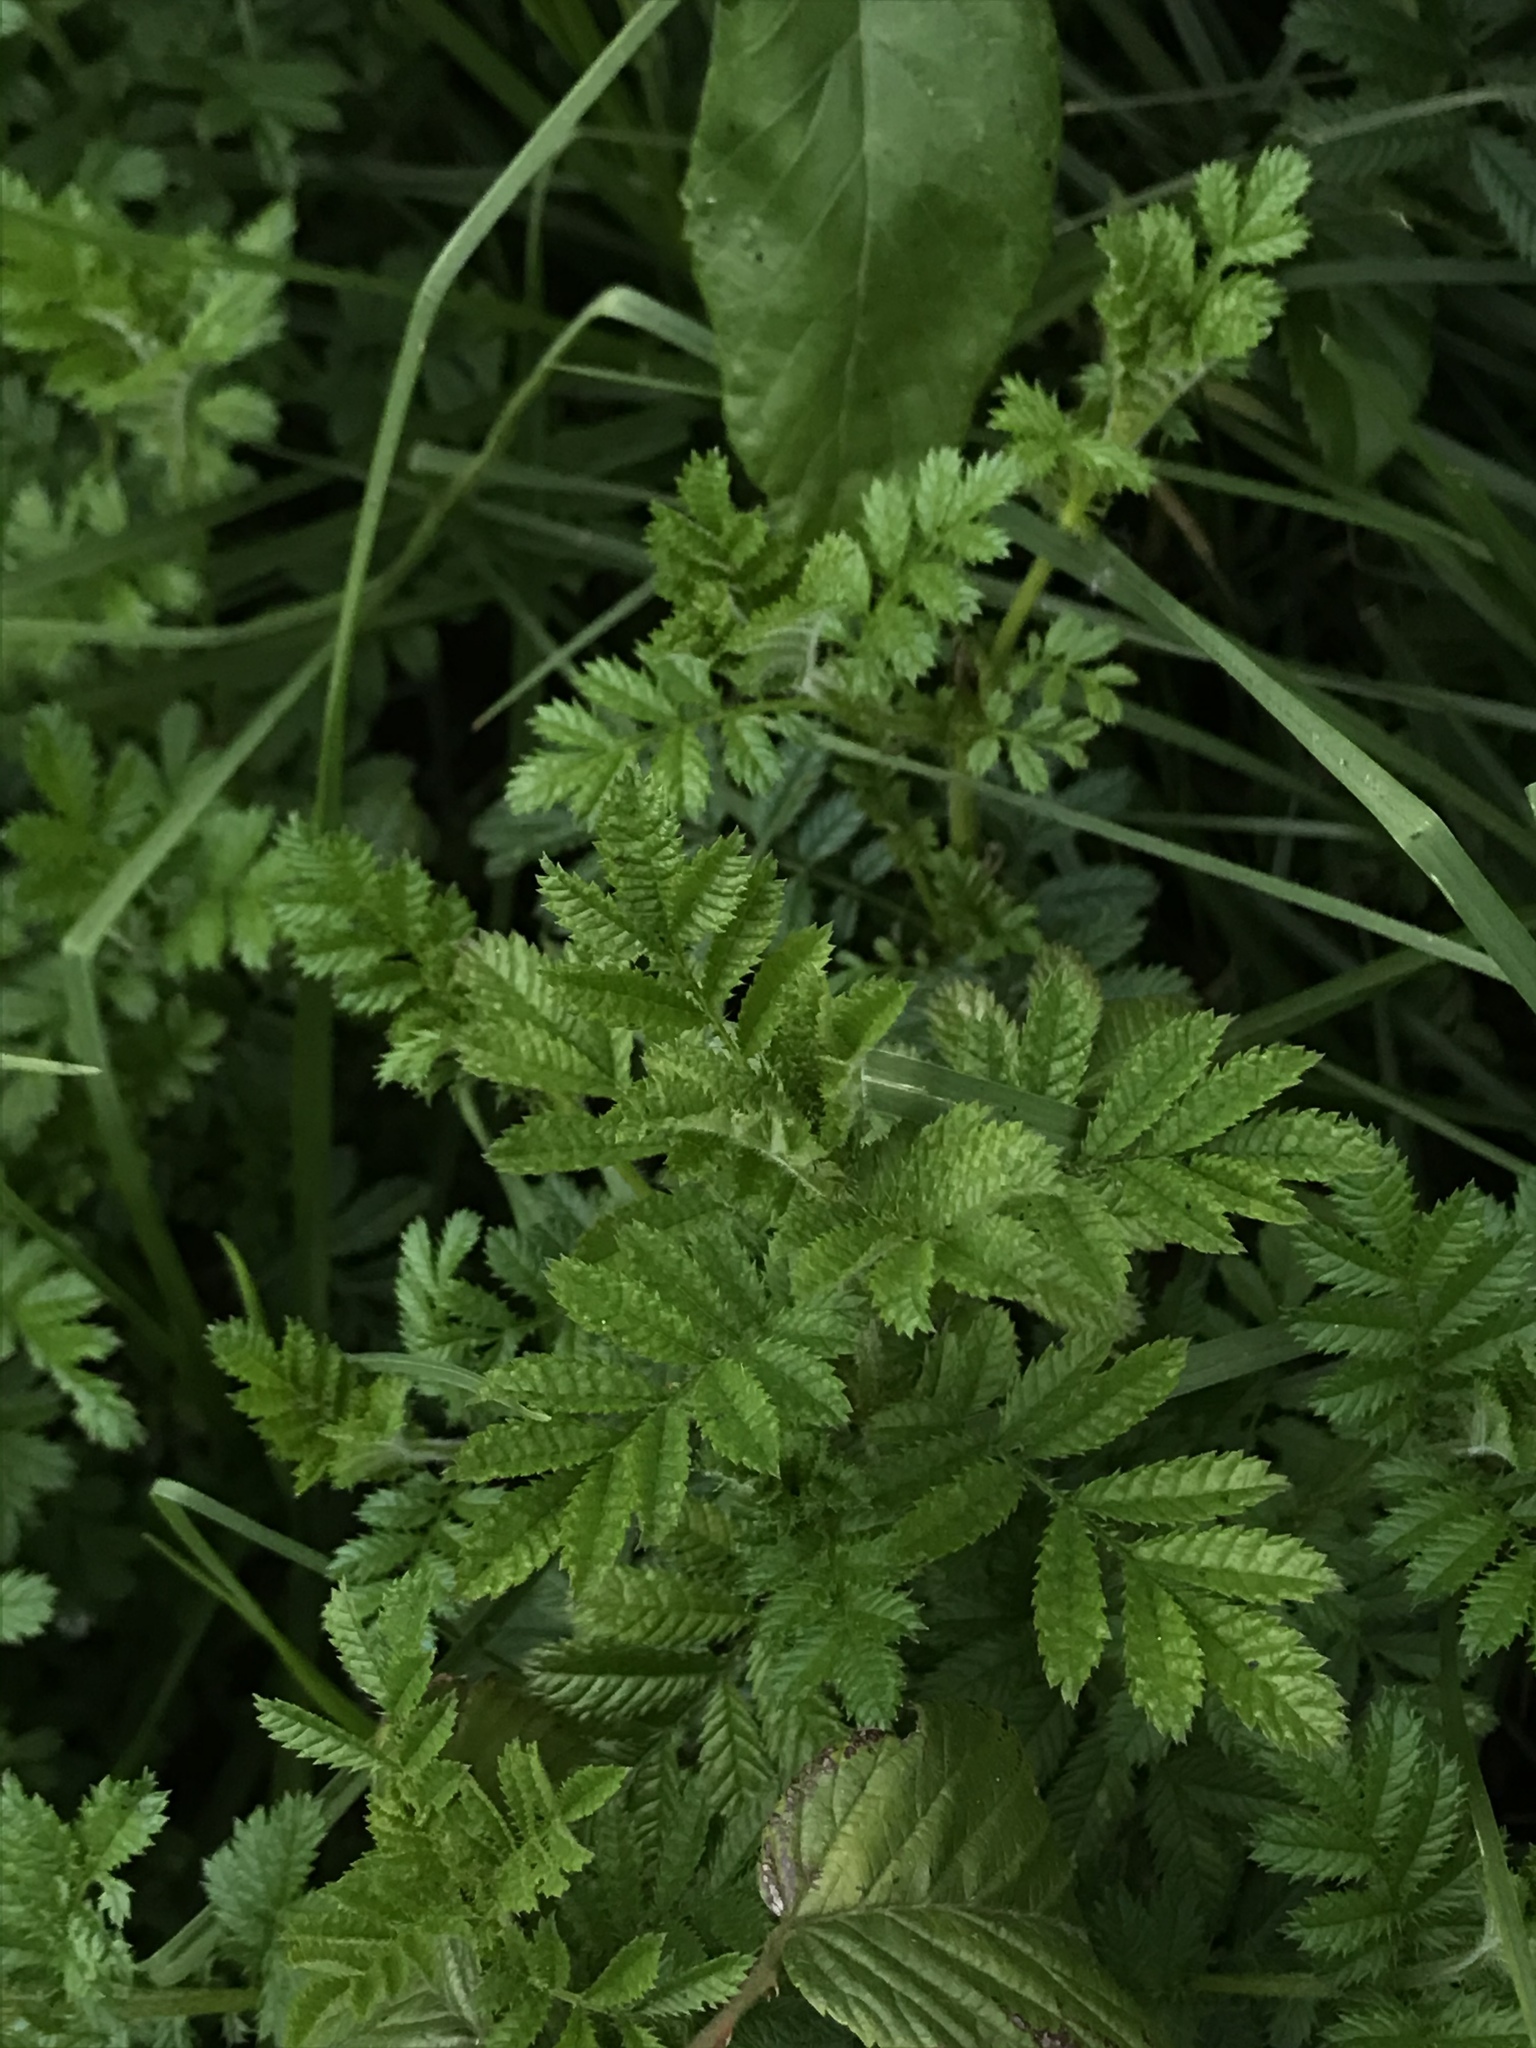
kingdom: Plantae
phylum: Tracheophyta
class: Magnoliopsida
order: Asterales
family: Asteraceae
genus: Tagetes
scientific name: Tagetes zypaquirensis
